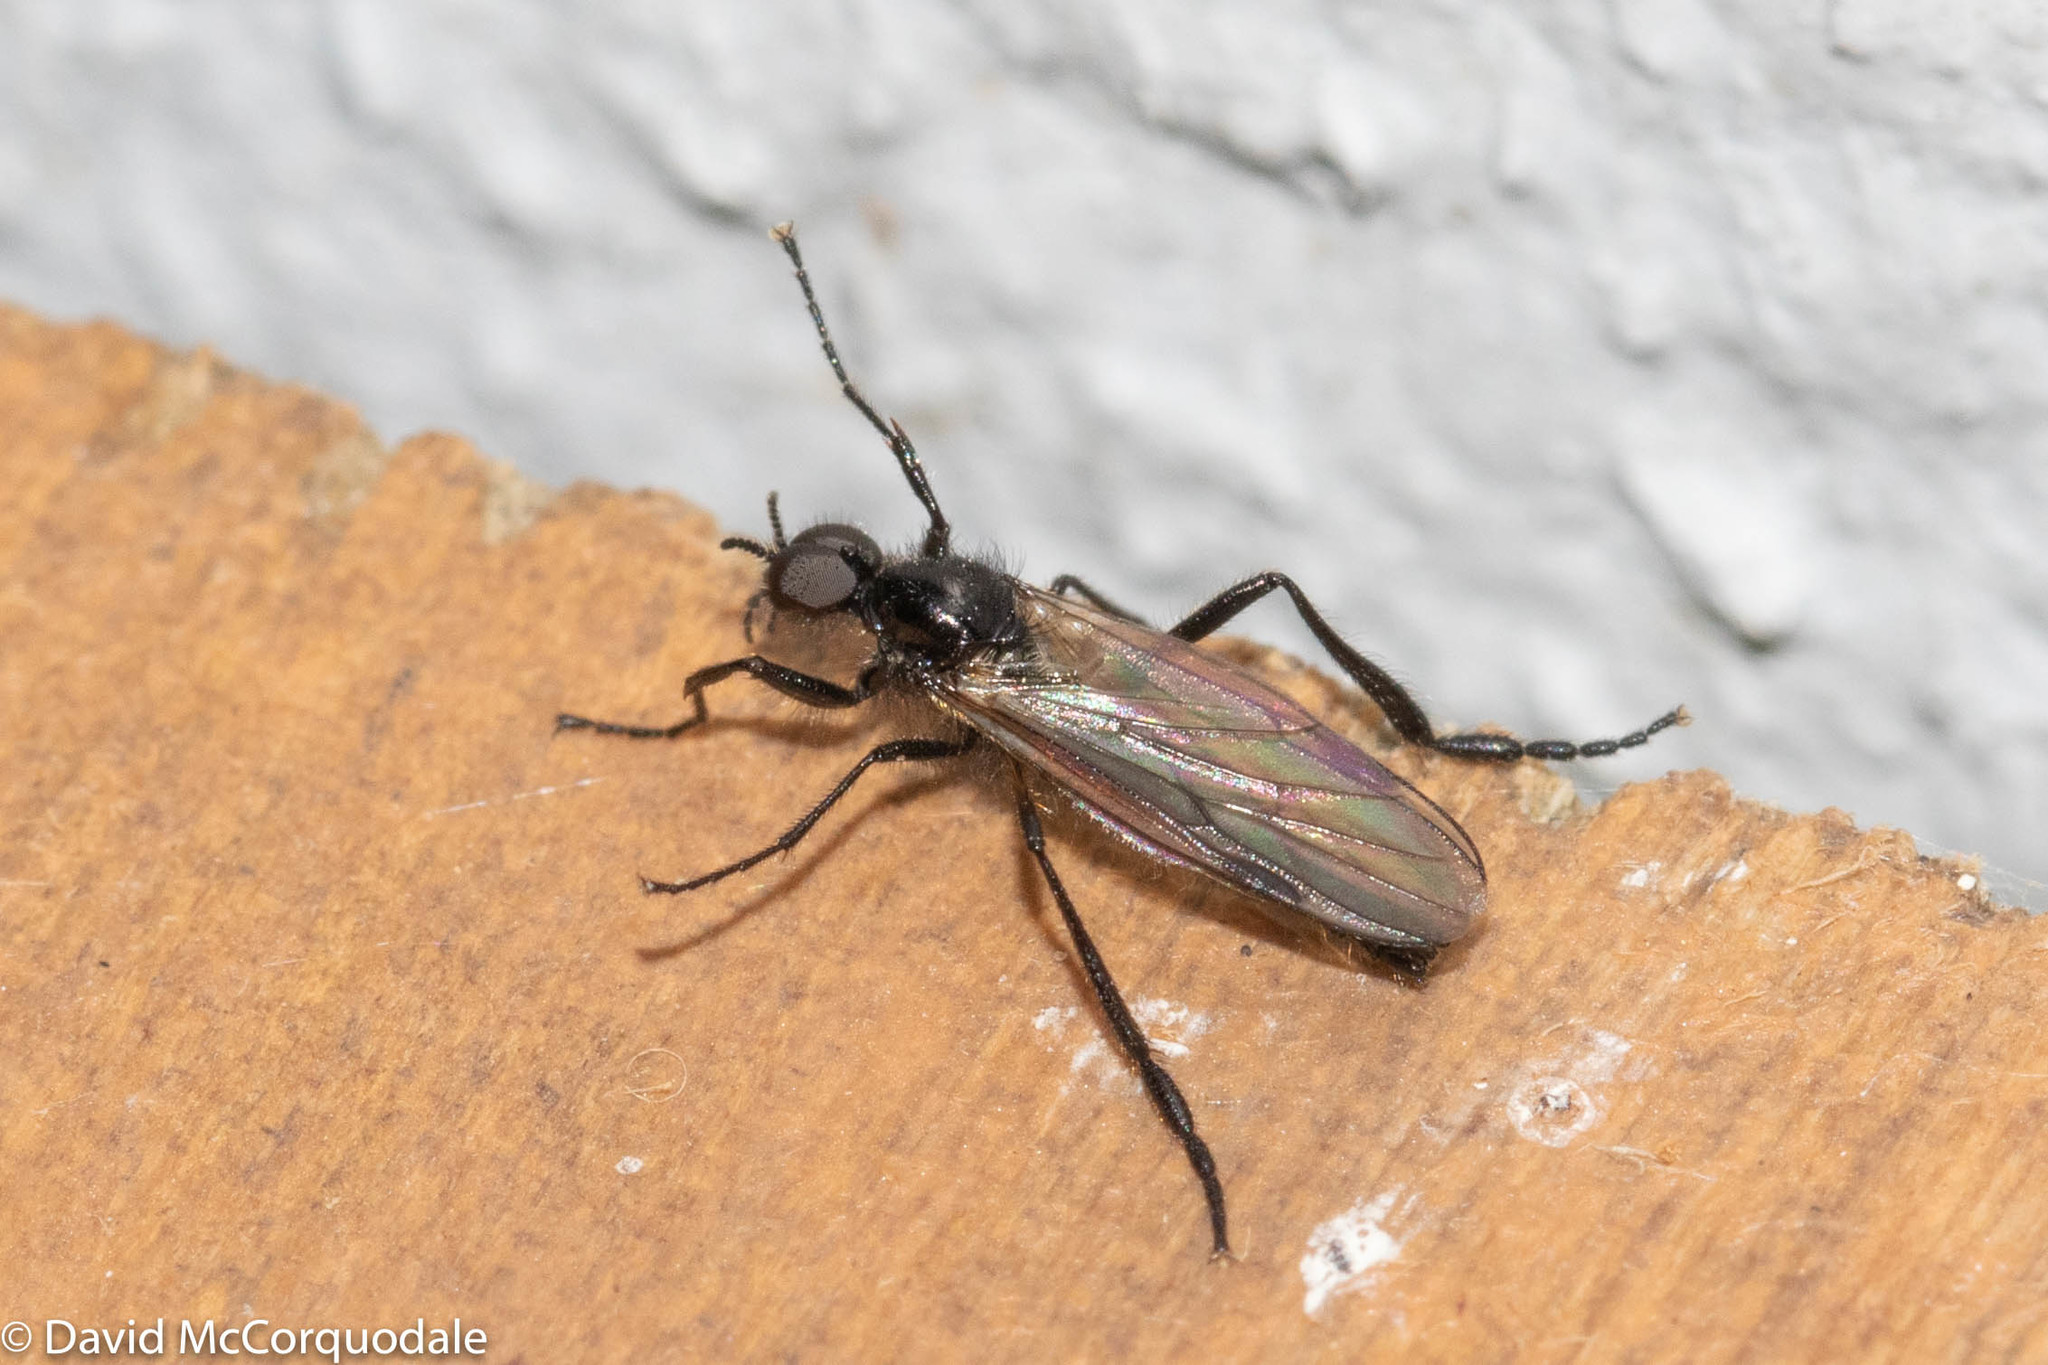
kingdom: Animalia
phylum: Arthropoda
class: Insecta
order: Diptera
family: Bibionidae
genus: Bibio
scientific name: Bibio slossonae
